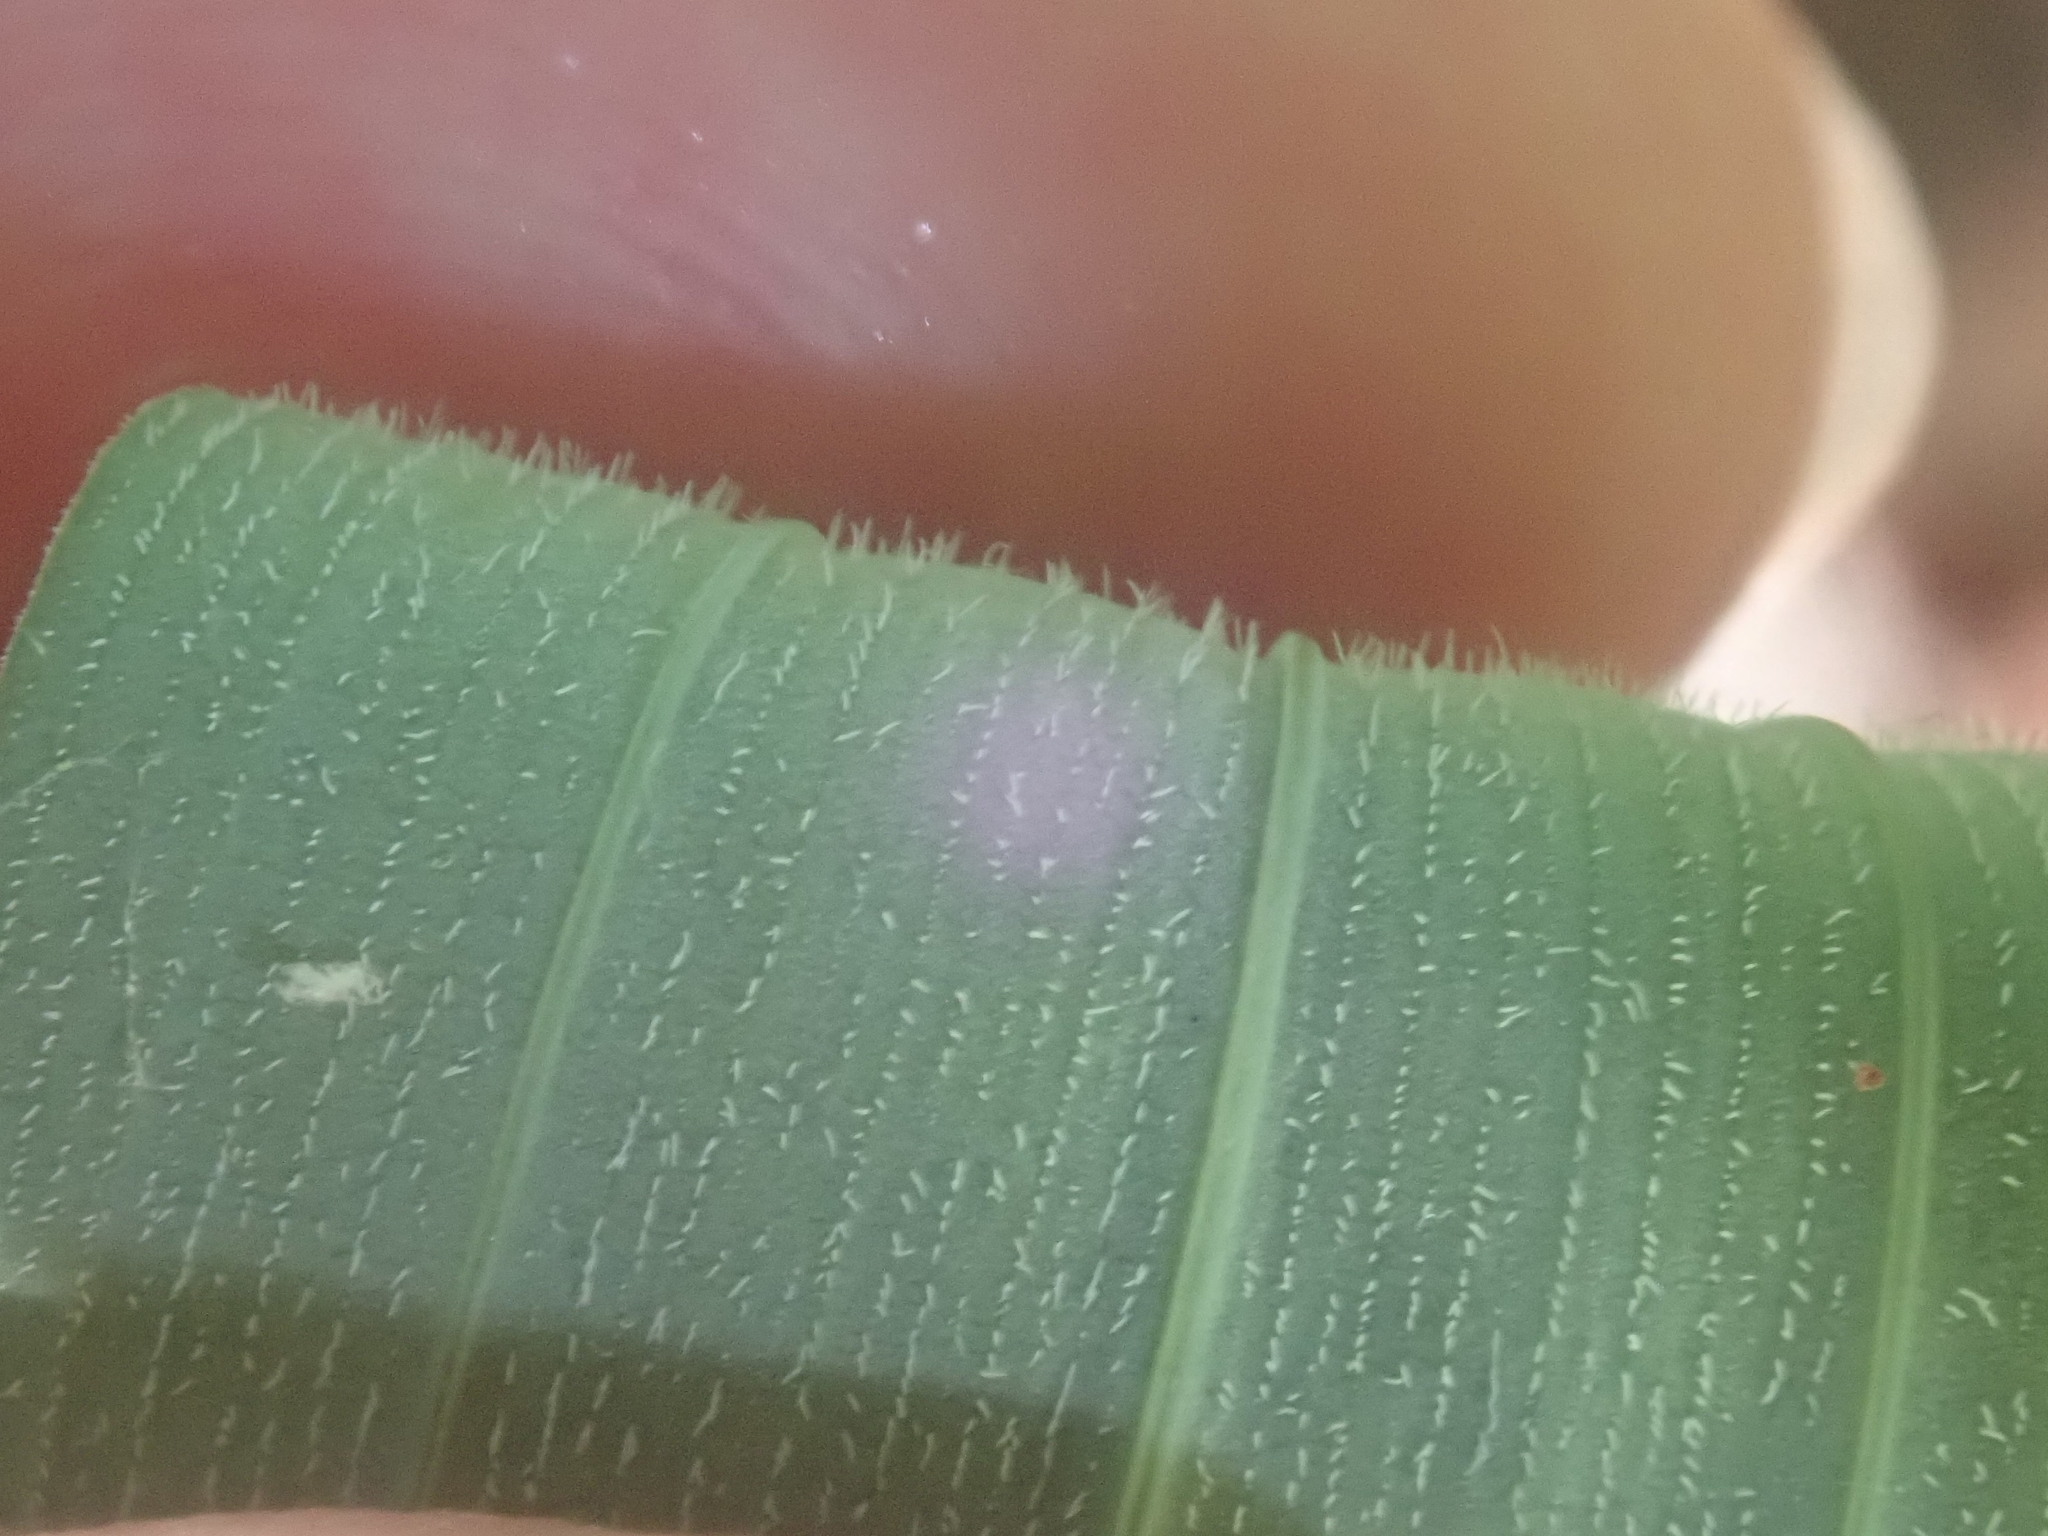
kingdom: Plantae
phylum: Tracheophyta
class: Liliopsida
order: Asparagales
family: Asparagaceae
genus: Polygonatum
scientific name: Polygonatum pubescens
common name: Downy solomon's seal
